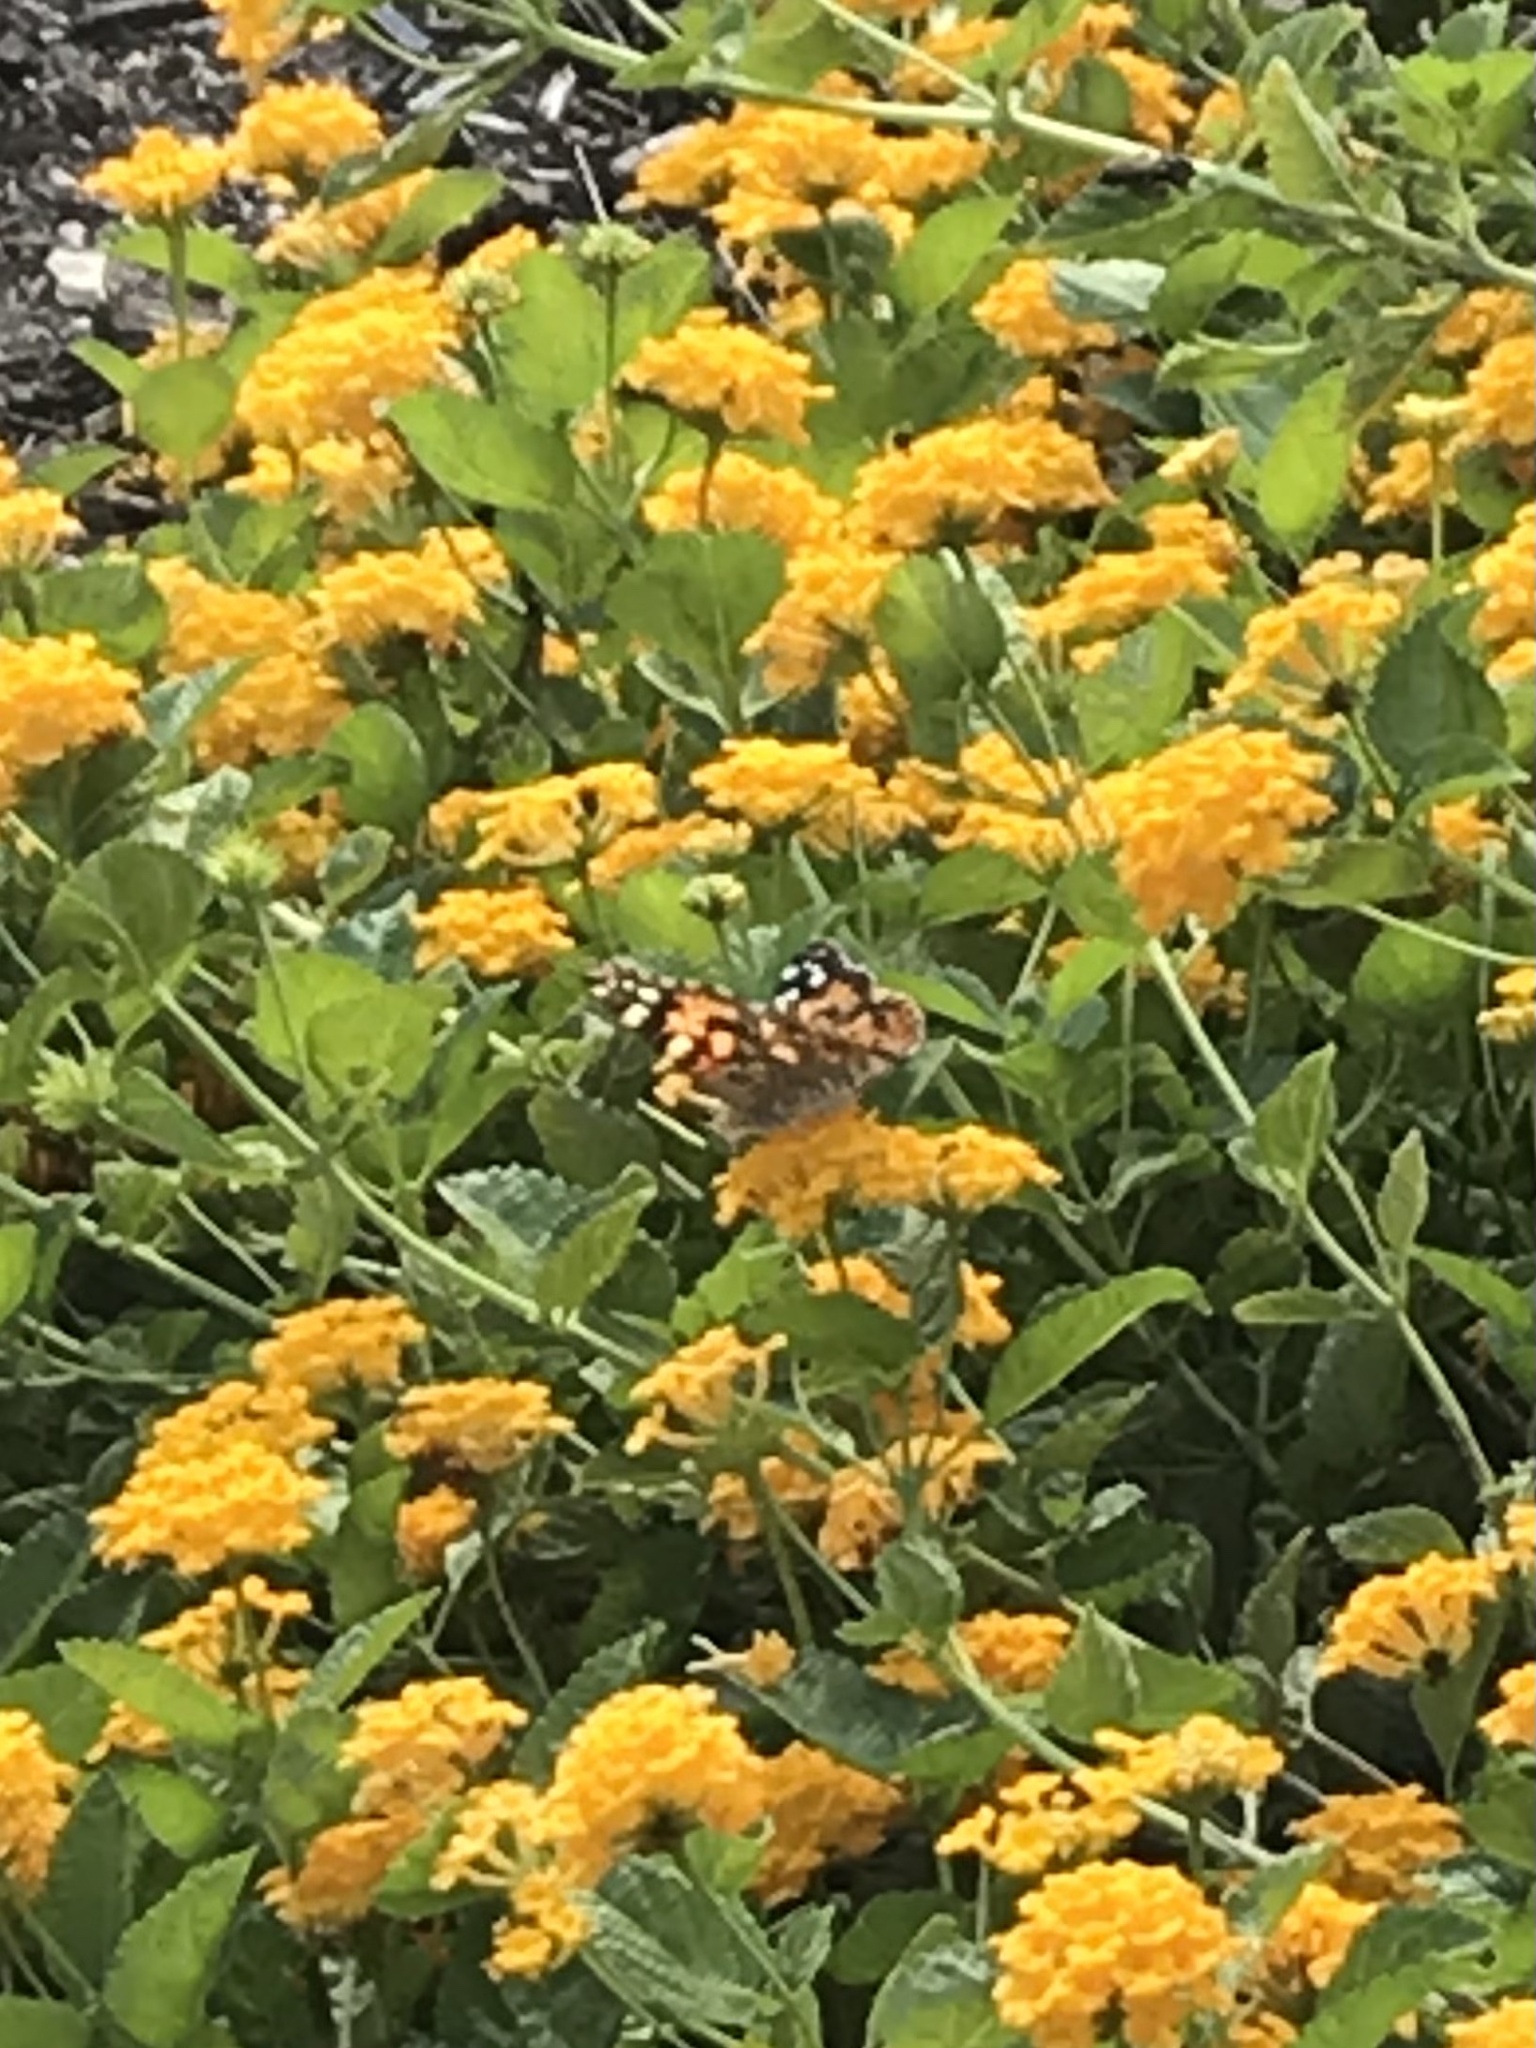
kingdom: Animalia
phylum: Arthropoda
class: Insecta
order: Lepidoptera
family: Nymphalidae
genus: Vanessa
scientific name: Vanessa cardui
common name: Painted lady
